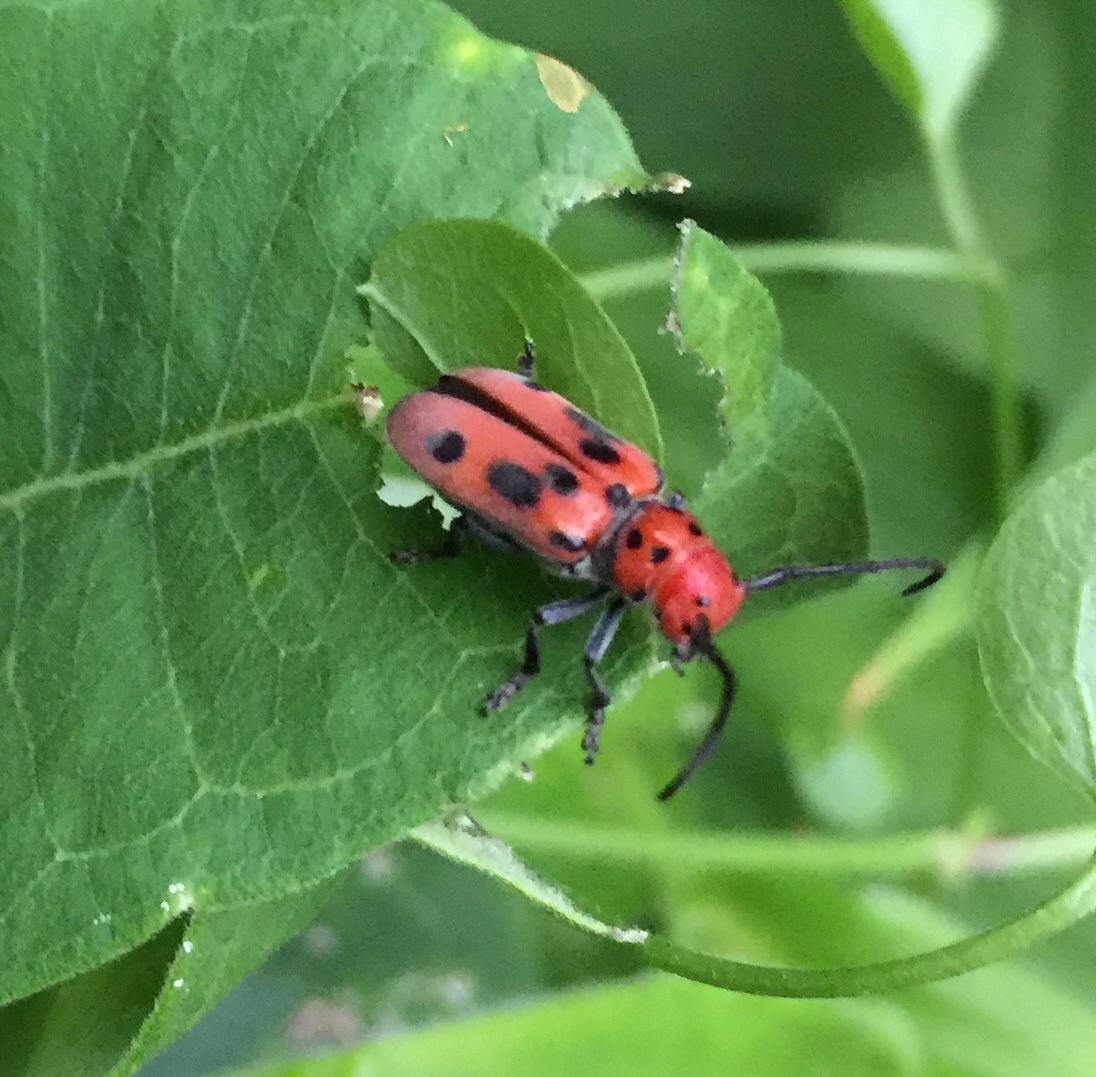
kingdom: Animalia
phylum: Arthropoda
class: Insecta
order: Coleoptera
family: Cerambycidae
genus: Tetraopes
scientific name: Tetraopes tetrophthalmus
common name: Red milkweed beetle
